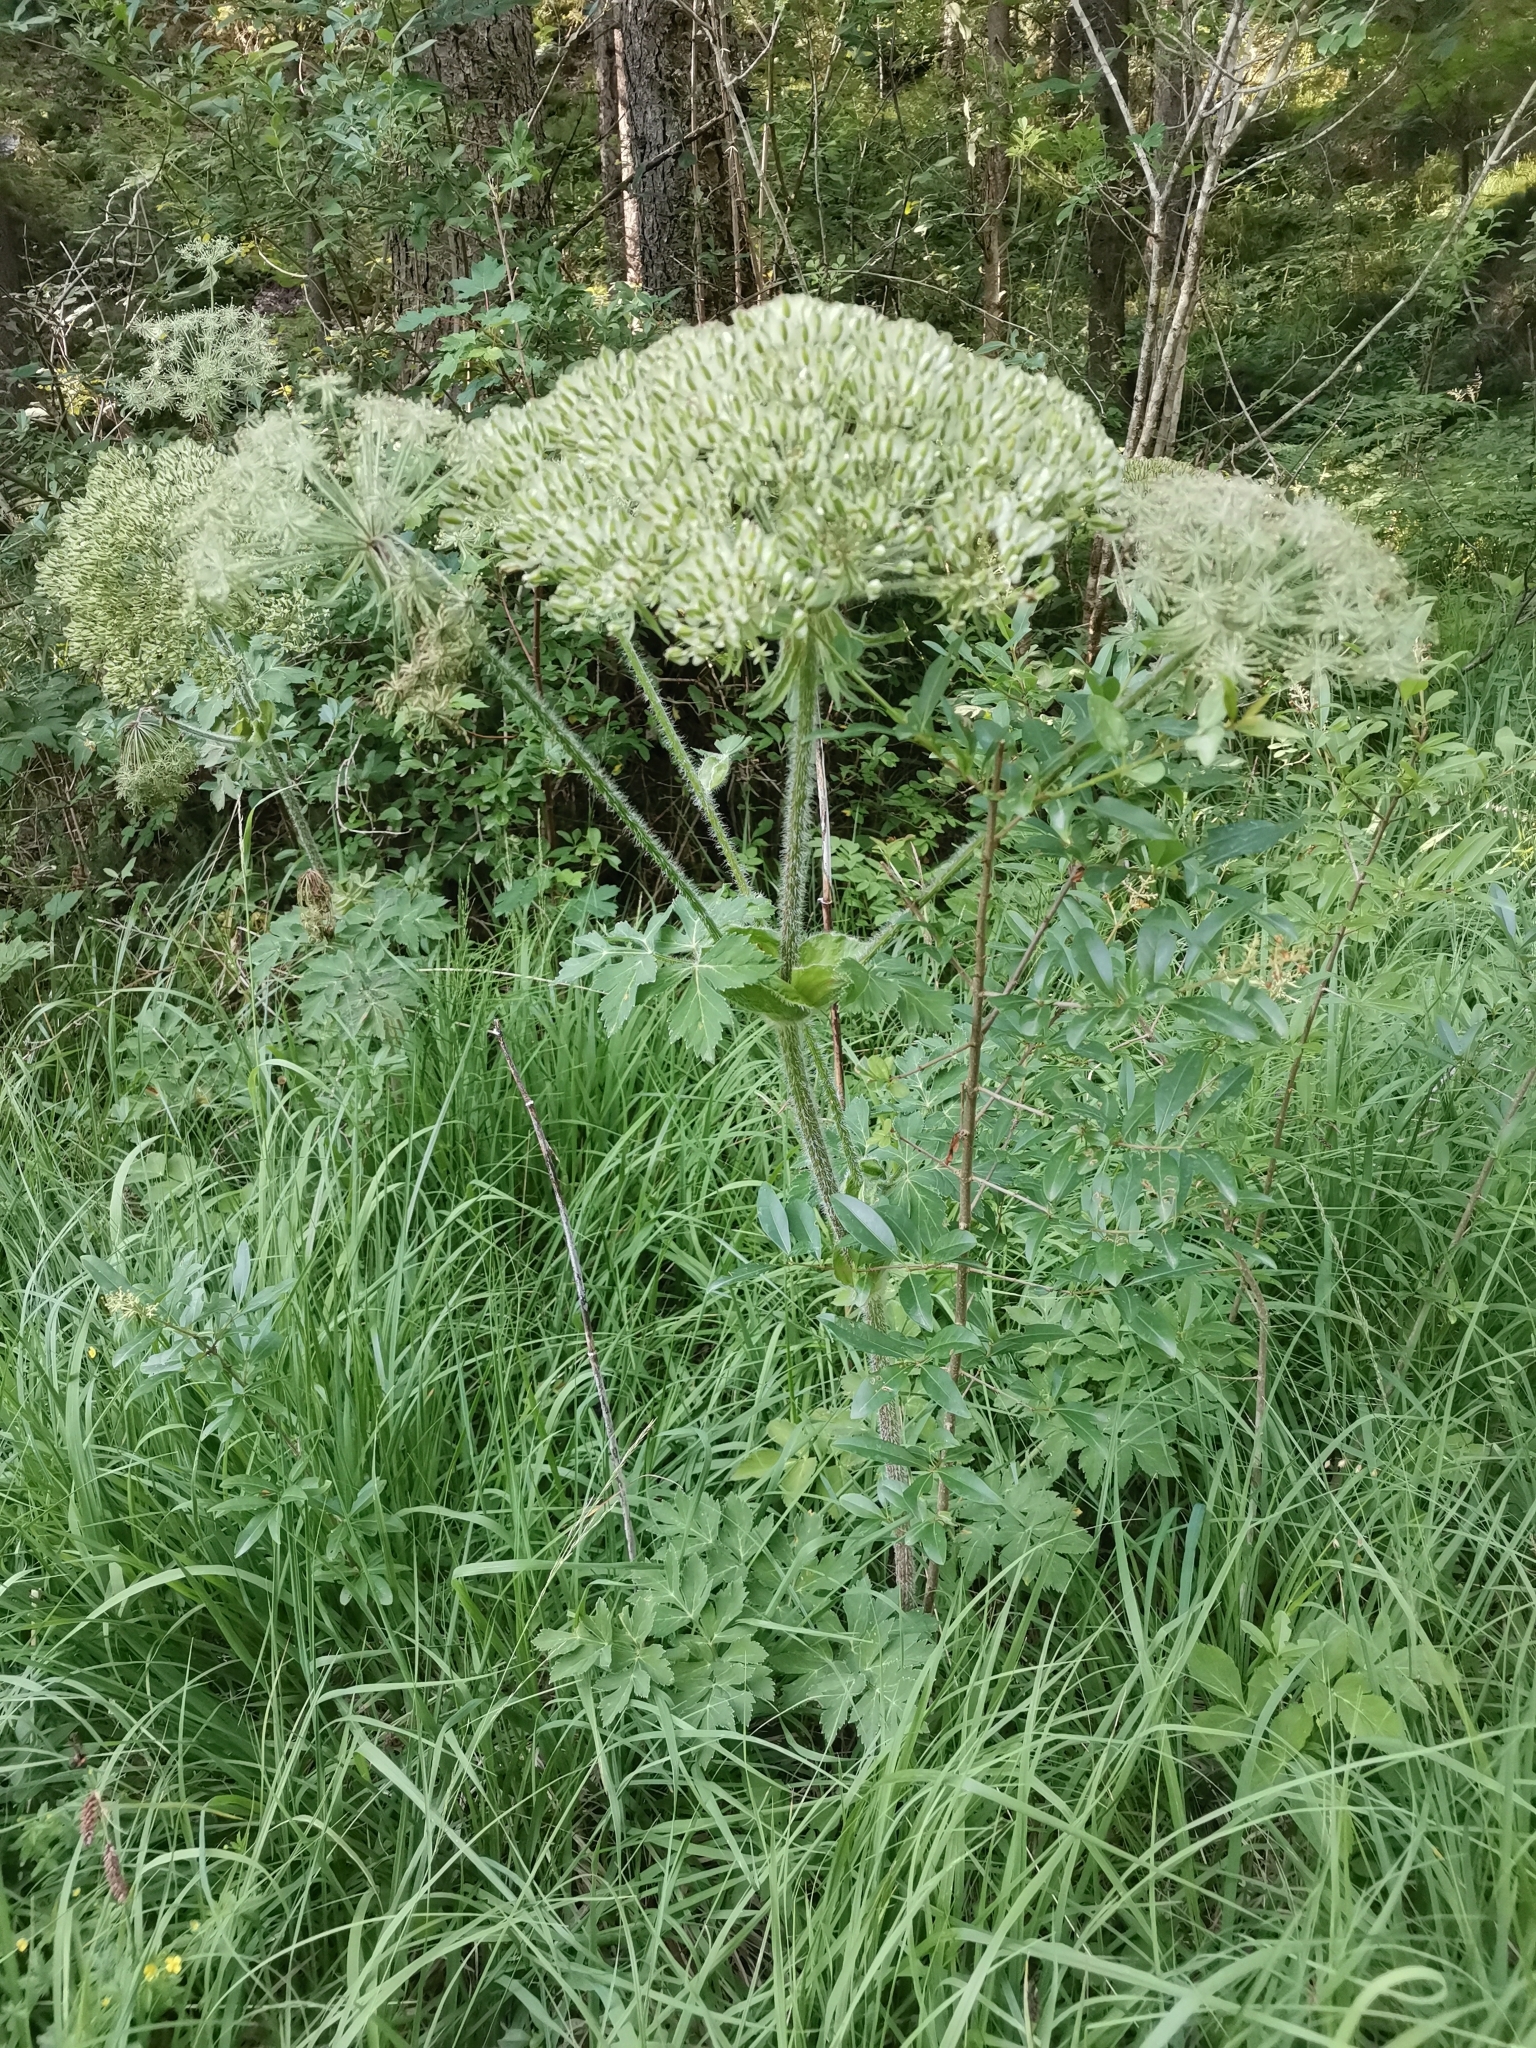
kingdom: Plantae
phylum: Tracheophyta
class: Magnoliopsida
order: Apiales
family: Apiaceae
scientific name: Apiaceae
